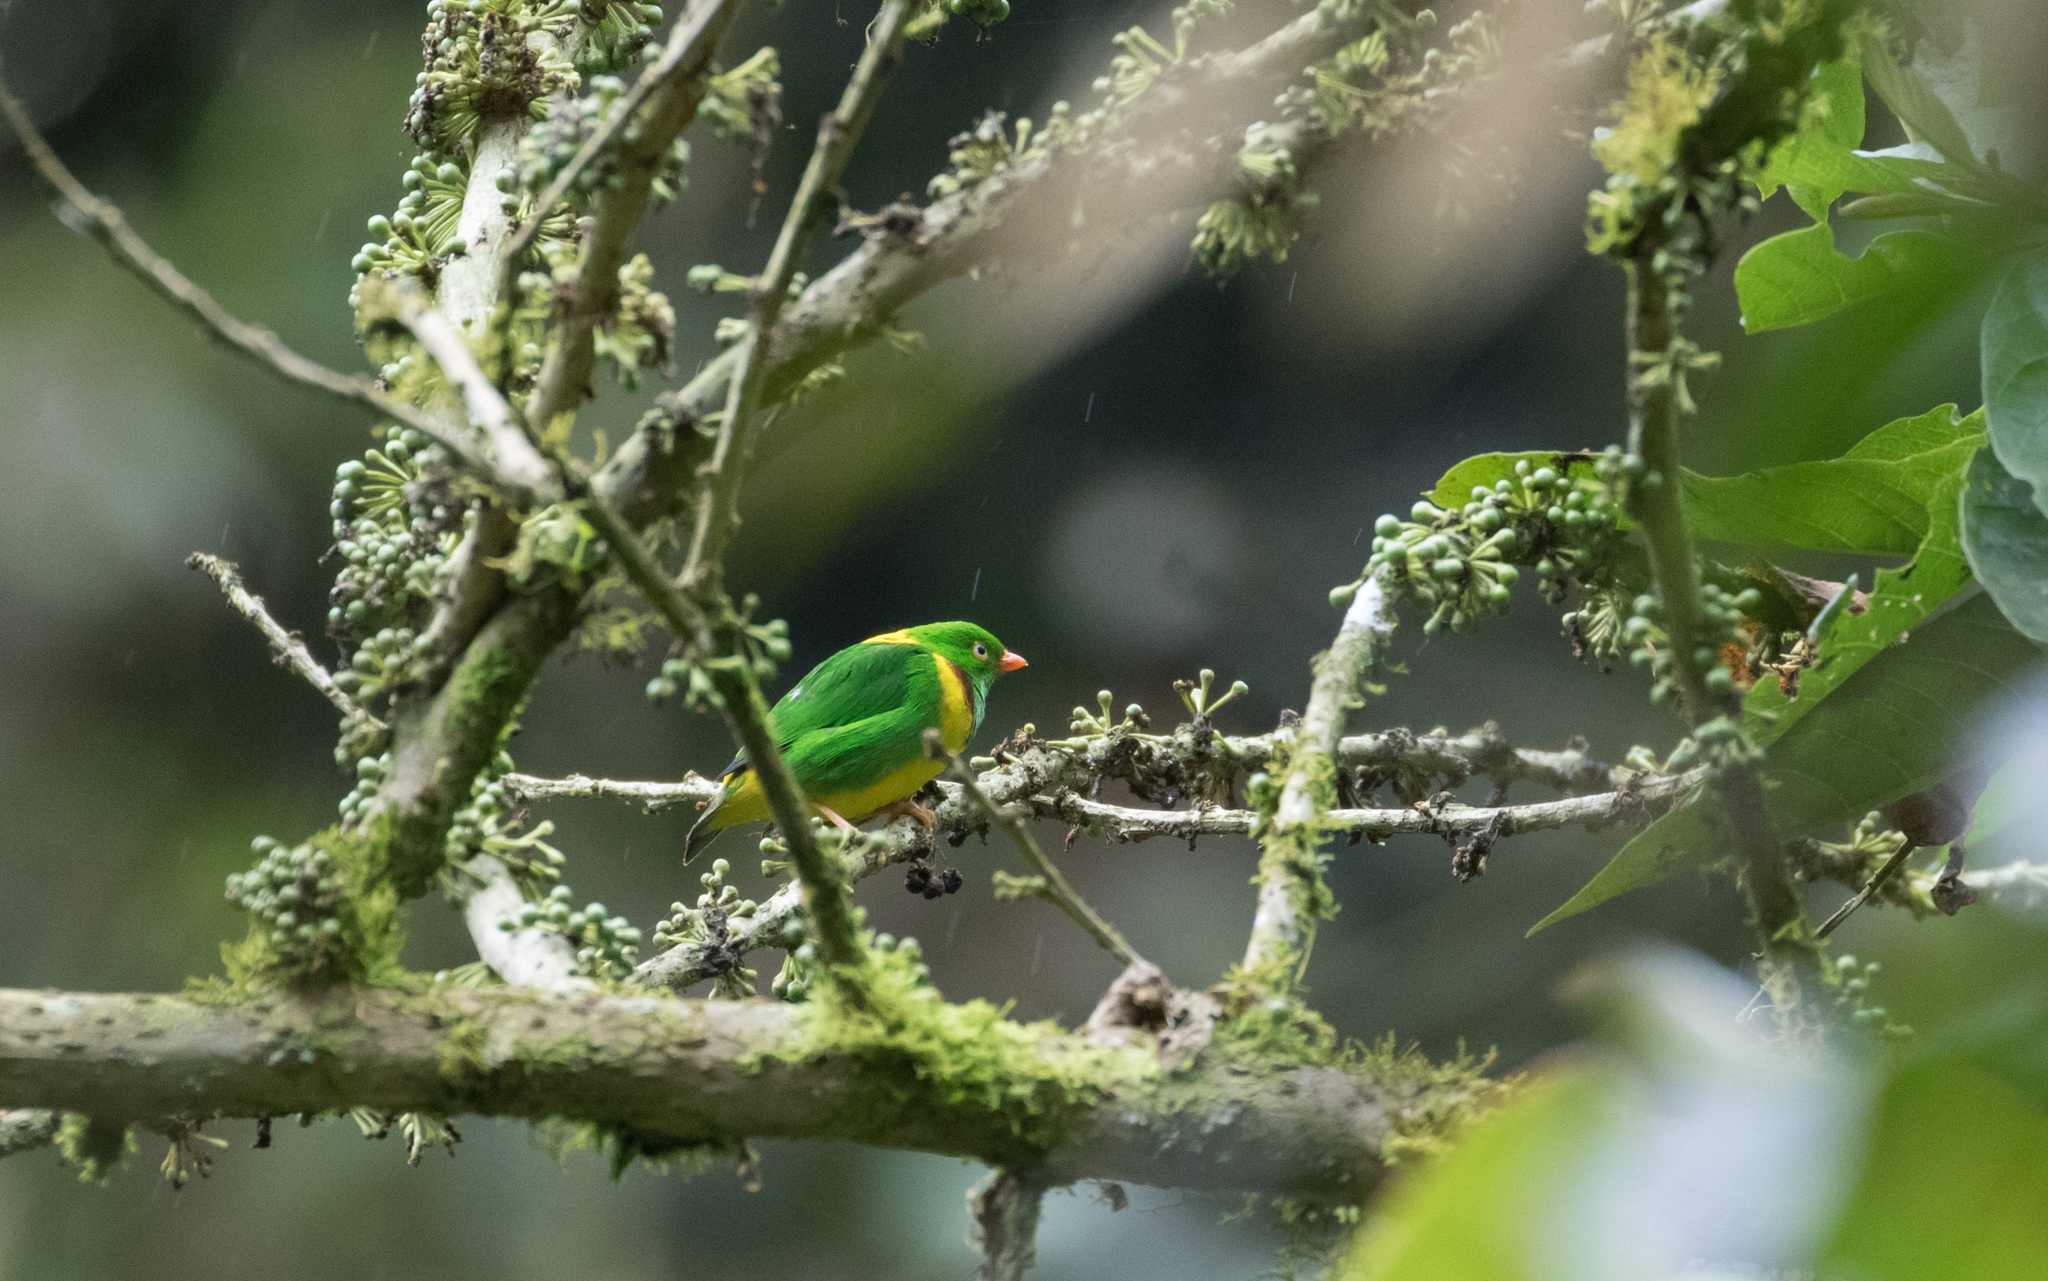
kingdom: Animalia
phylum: Chordata
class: Aves
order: Passeriformes
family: Fringillidae
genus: Chlorophonia
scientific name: Chlorophonia flavirostris
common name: Yellow-collared chlorophonia
